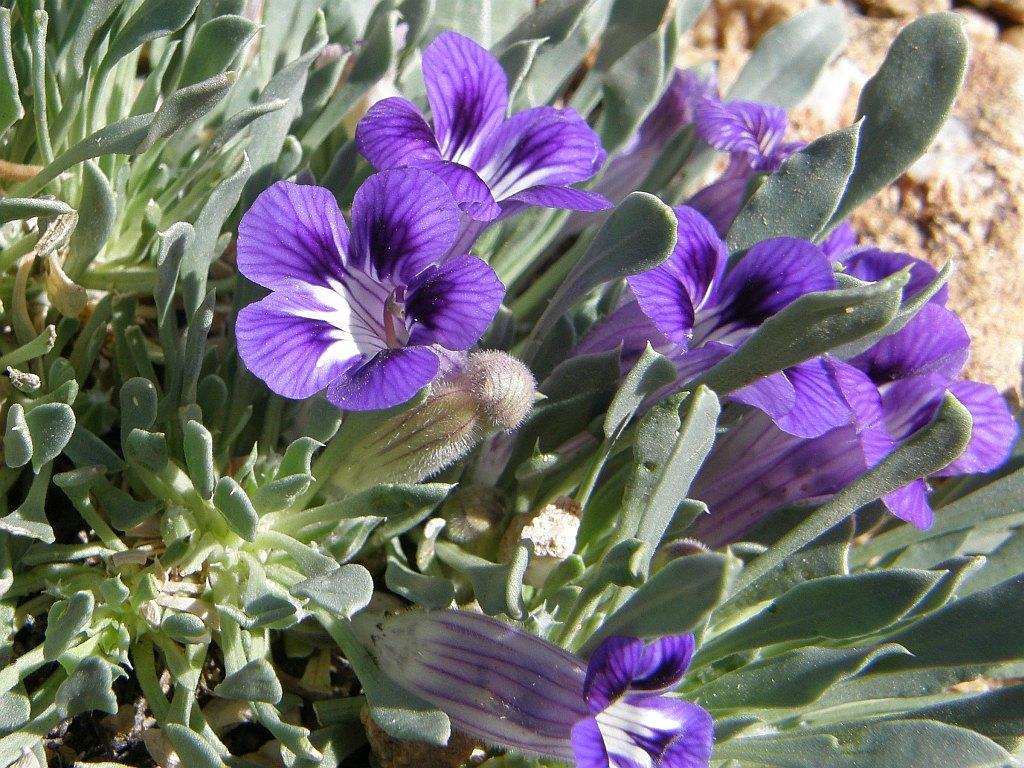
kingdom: Plantae
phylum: Tracheophyta
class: Magnoliopsida
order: Lamiales
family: Scrophulariaceae
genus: Aptosimum
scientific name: Aptosimum indivisum
